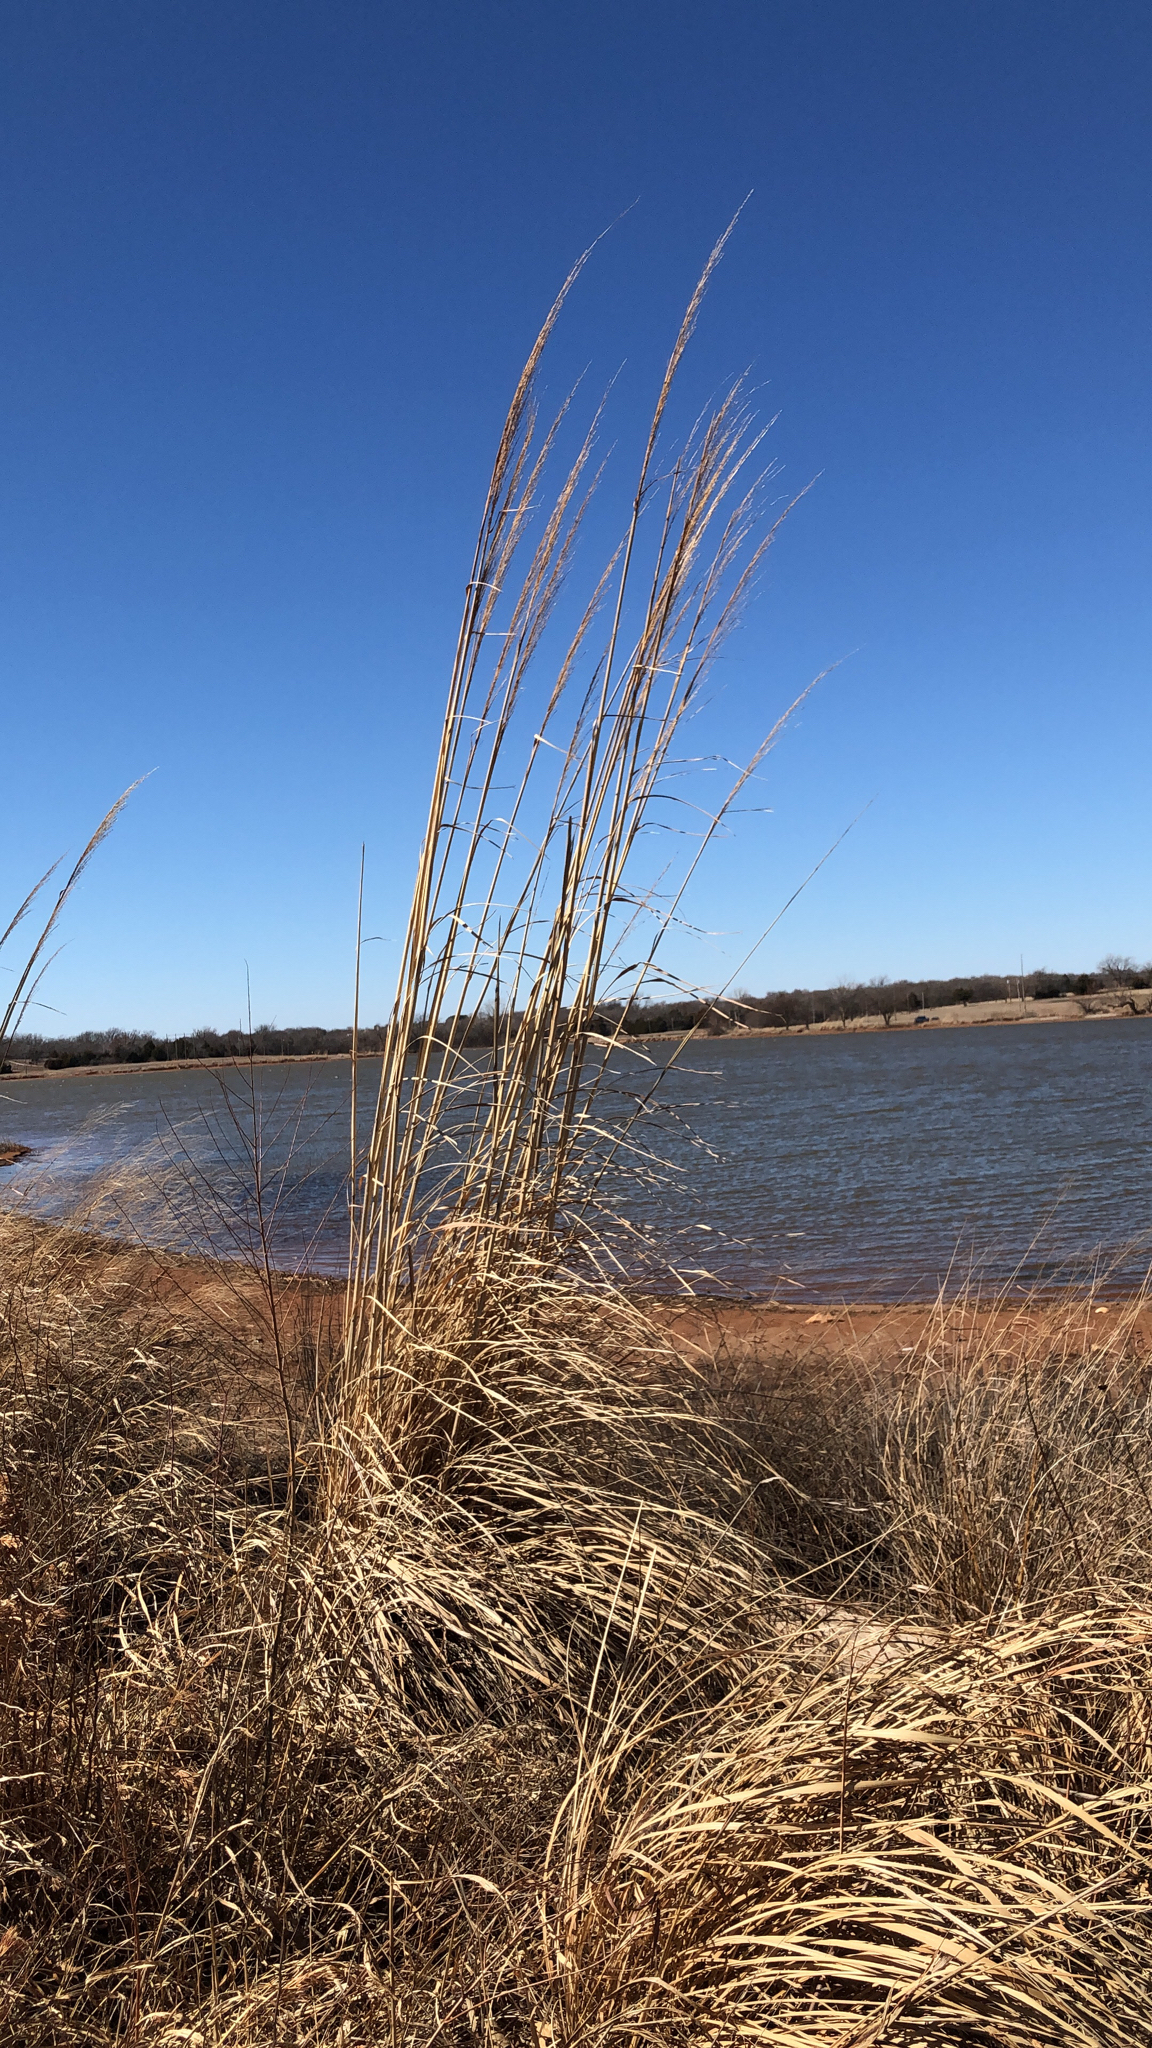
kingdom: Plantae
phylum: Tracheophyta
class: Liliopsida
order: Poales
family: Poaceae
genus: Tripidium
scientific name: Tripidium ravennae
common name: Ravenna grass
